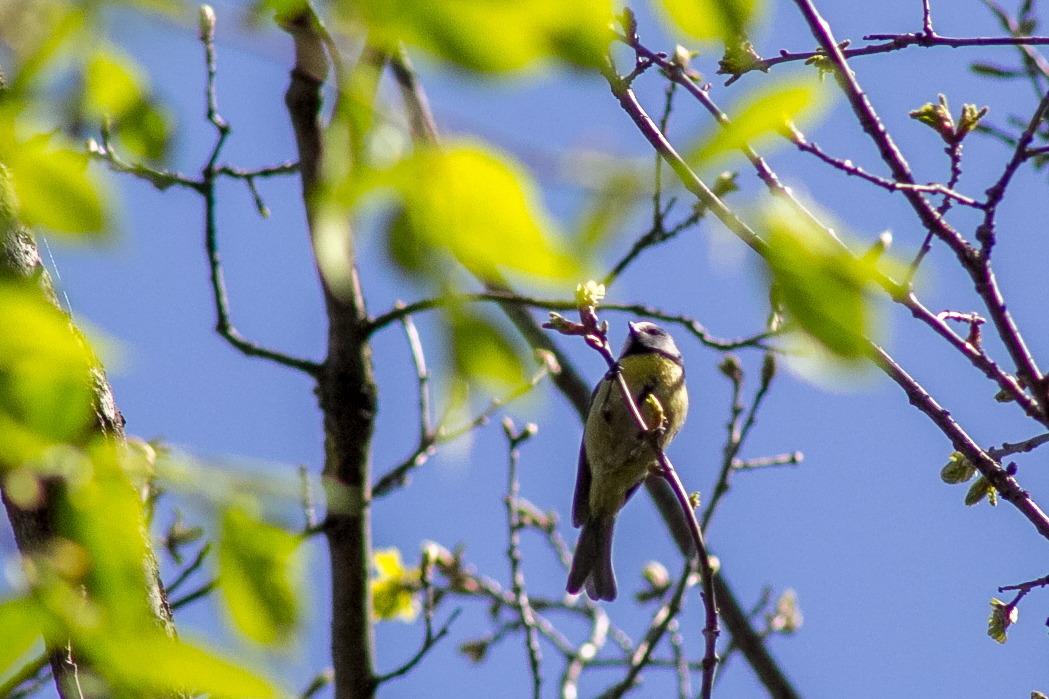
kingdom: Animalia
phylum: Chordata
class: Aves
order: Passeriformes
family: Paridae
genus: Cyanistes
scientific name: Cyanistes caeruleus
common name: Eurasian blue tit
